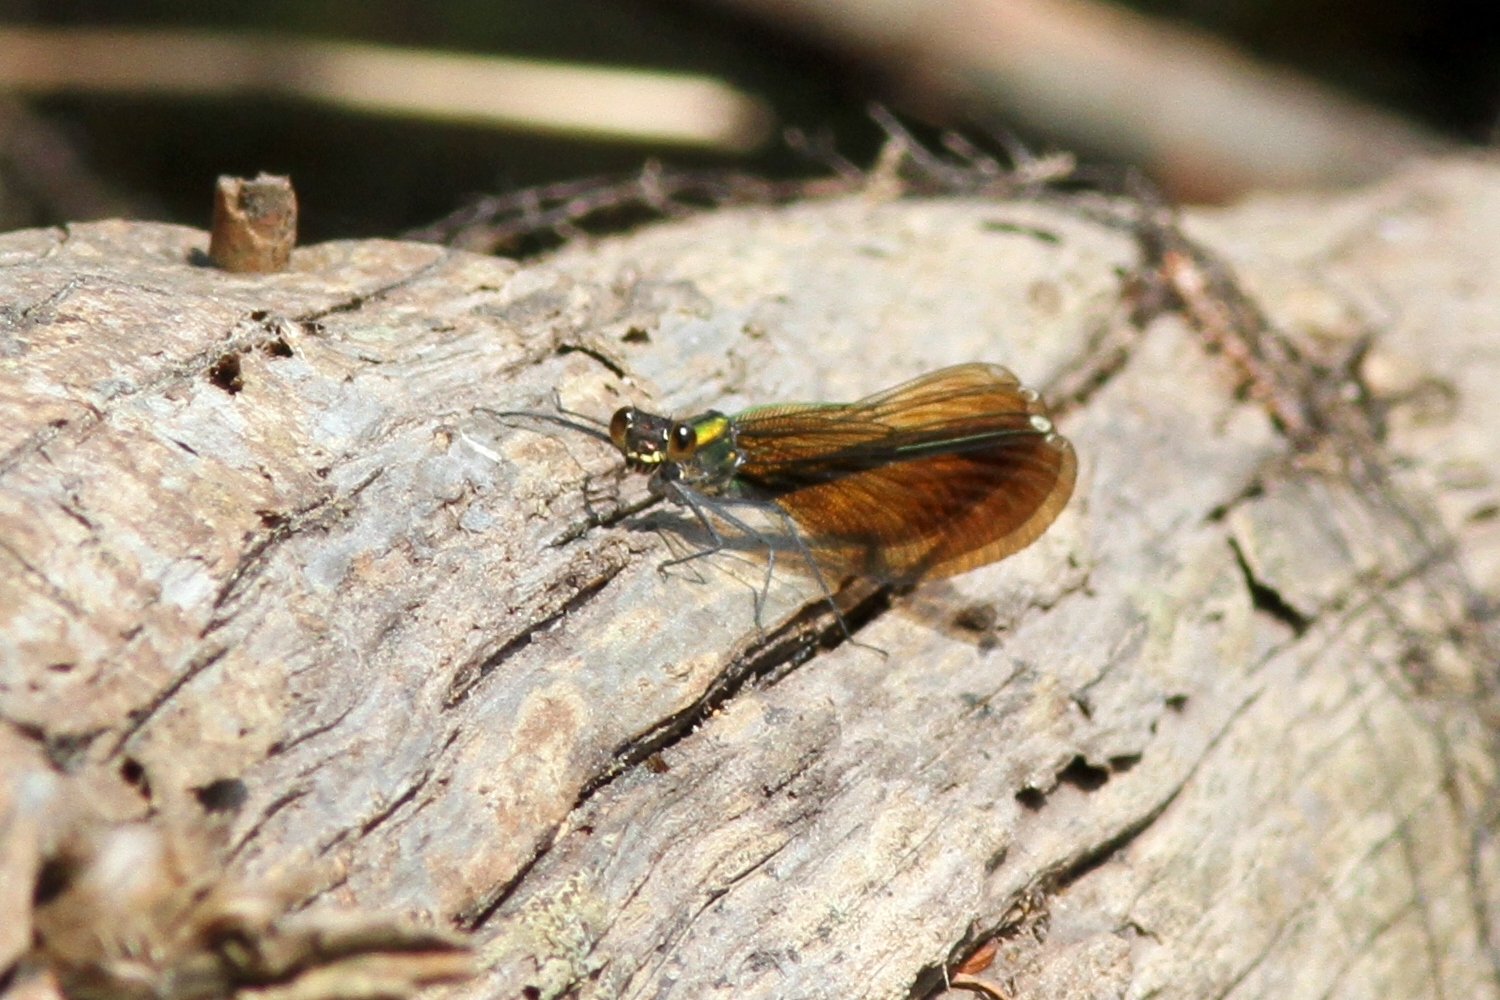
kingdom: Animalia
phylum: Arthropoda
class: Insecta
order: Odonata
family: Calopterygidae
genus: Calopteryx
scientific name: Calopteryx aequabilis
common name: River jewelwing
